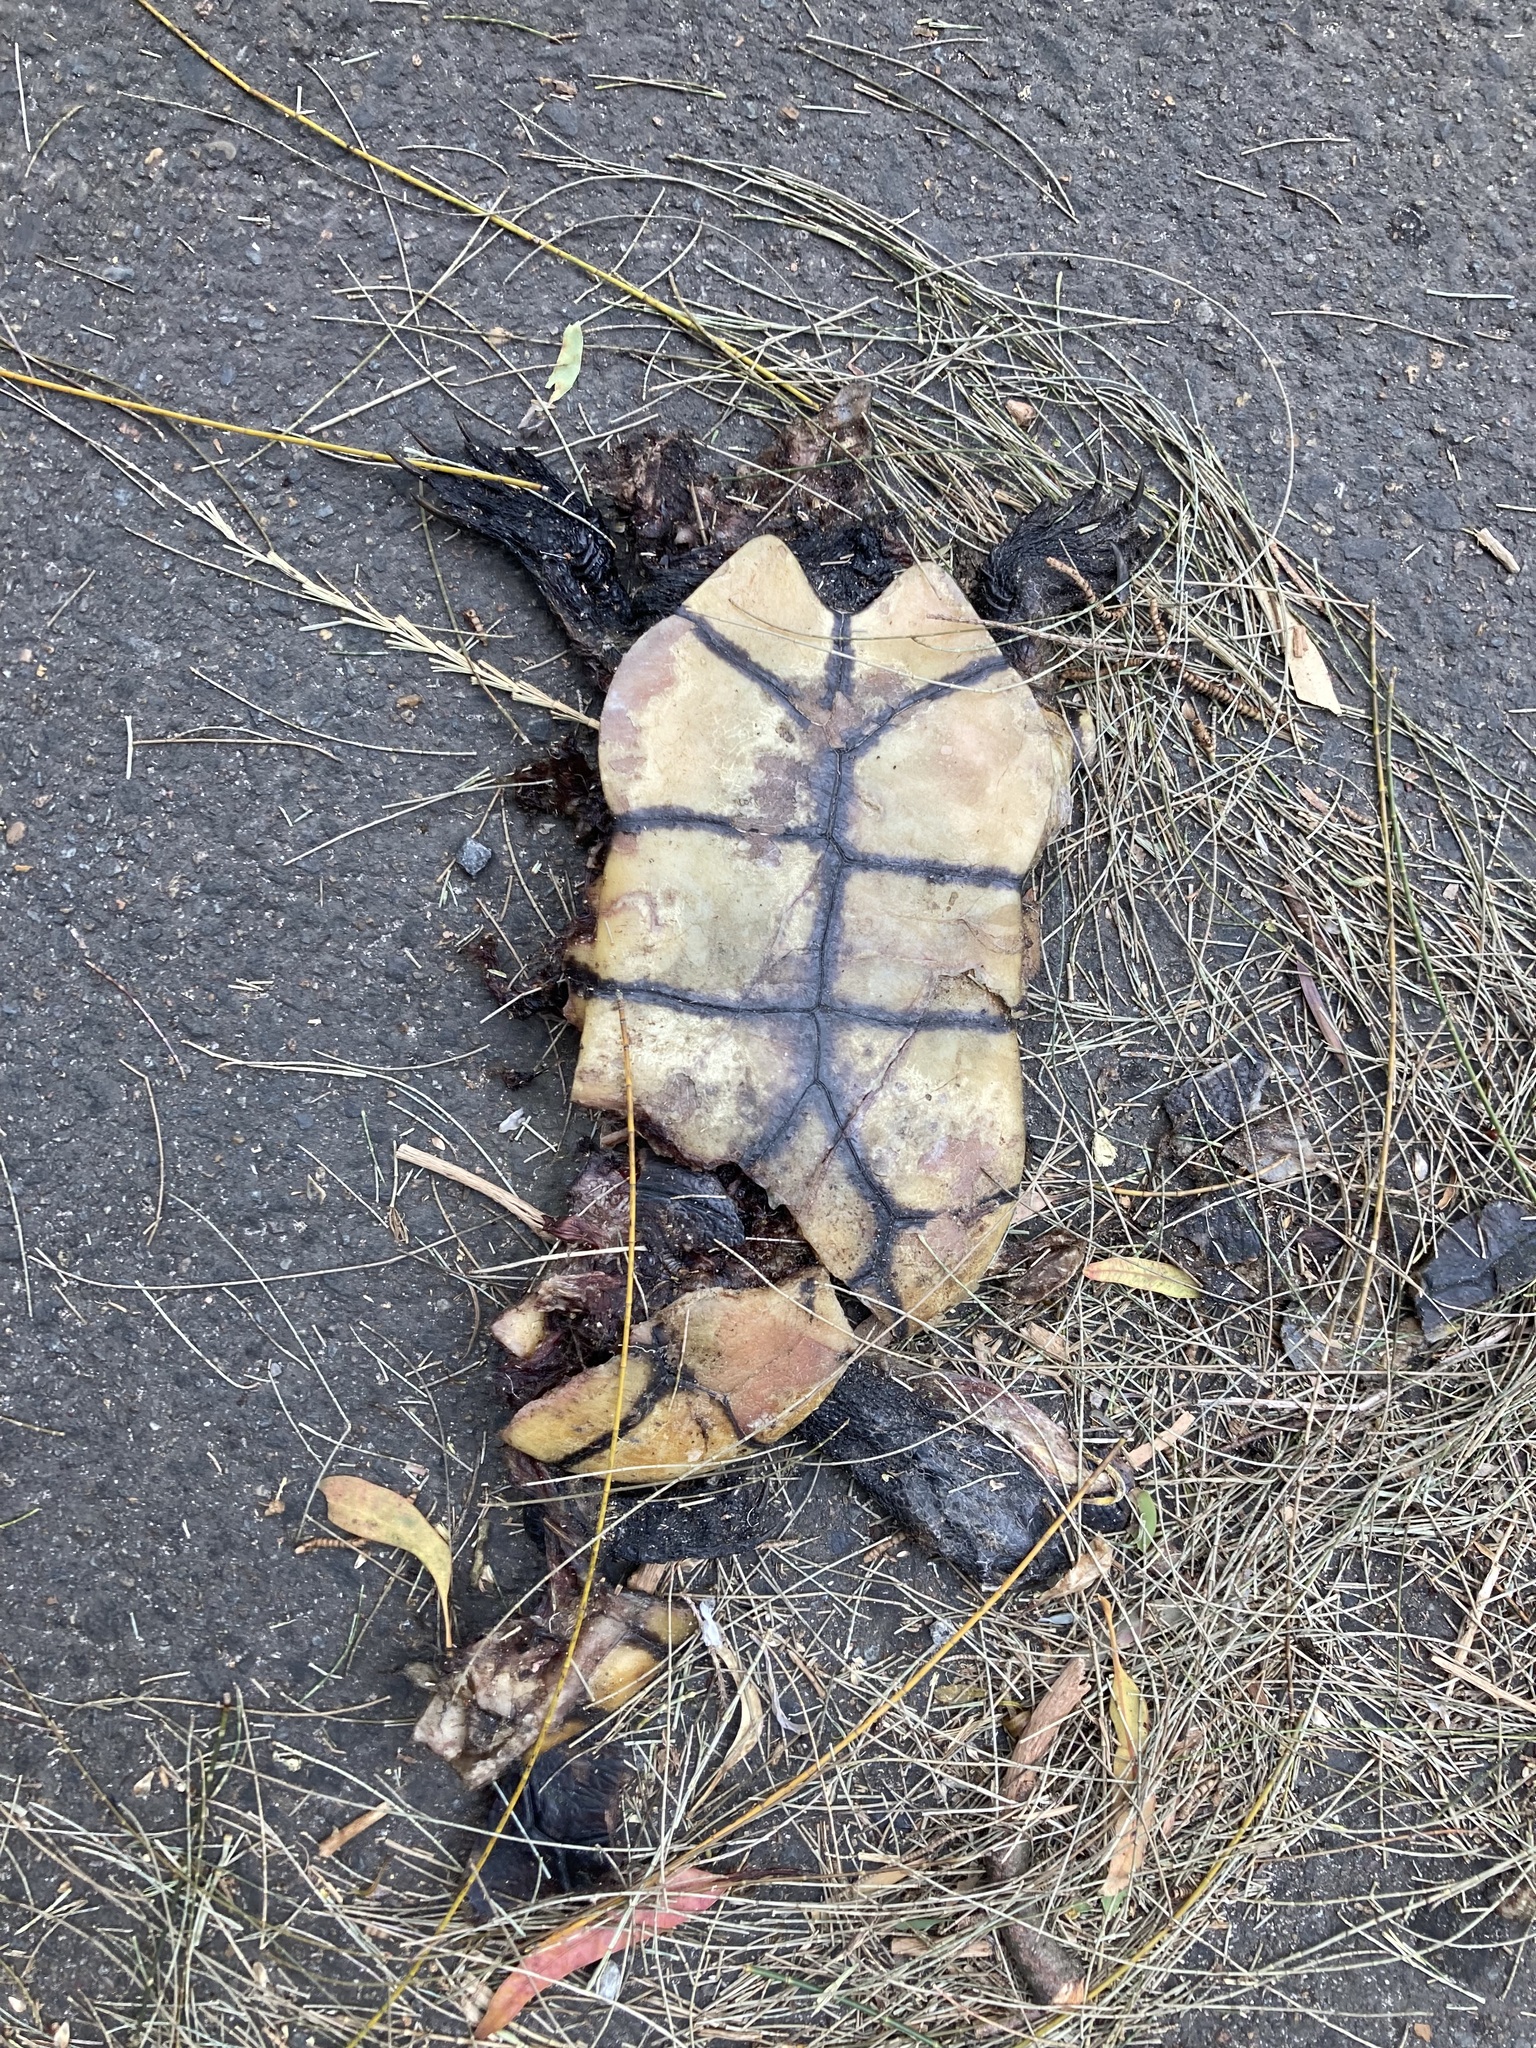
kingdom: Animalia
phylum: Chordata
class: Testudines
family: Chelidae
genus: Chelodina
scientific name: Chelodina longicollis
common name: Eastern snake-necked turtle
